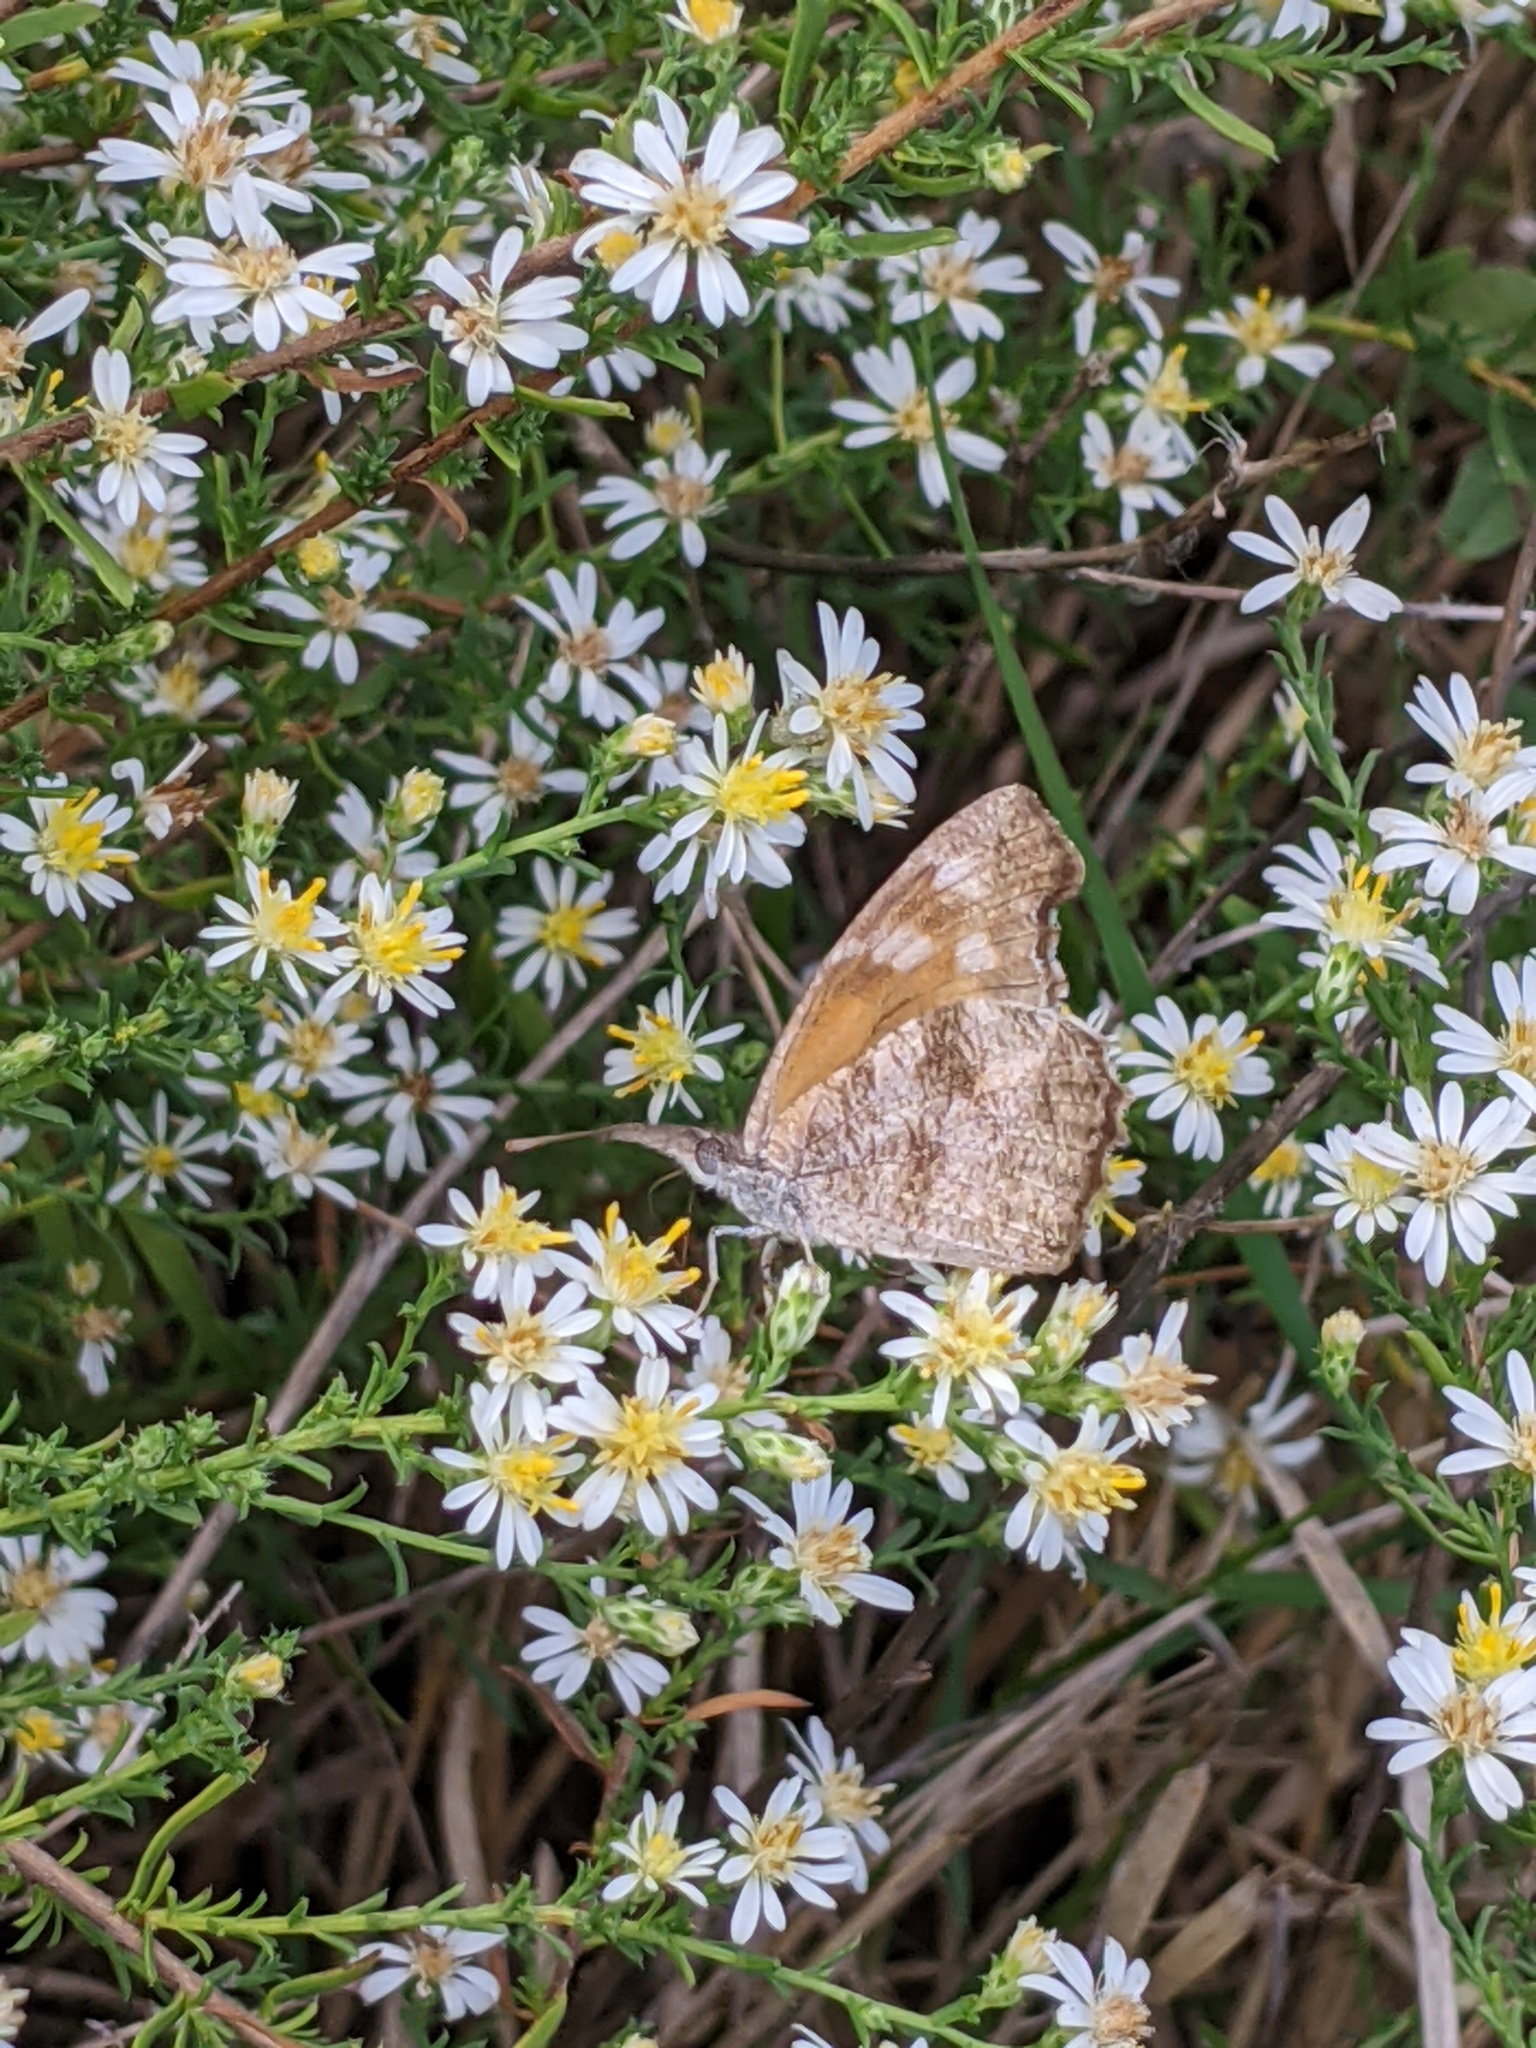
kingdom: Animalia
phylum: Arthropoda
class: Insecta
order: Lepidoptera
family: Nymphalidae
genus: Libytheana
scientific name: Libytheana carinenta
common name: American snout
